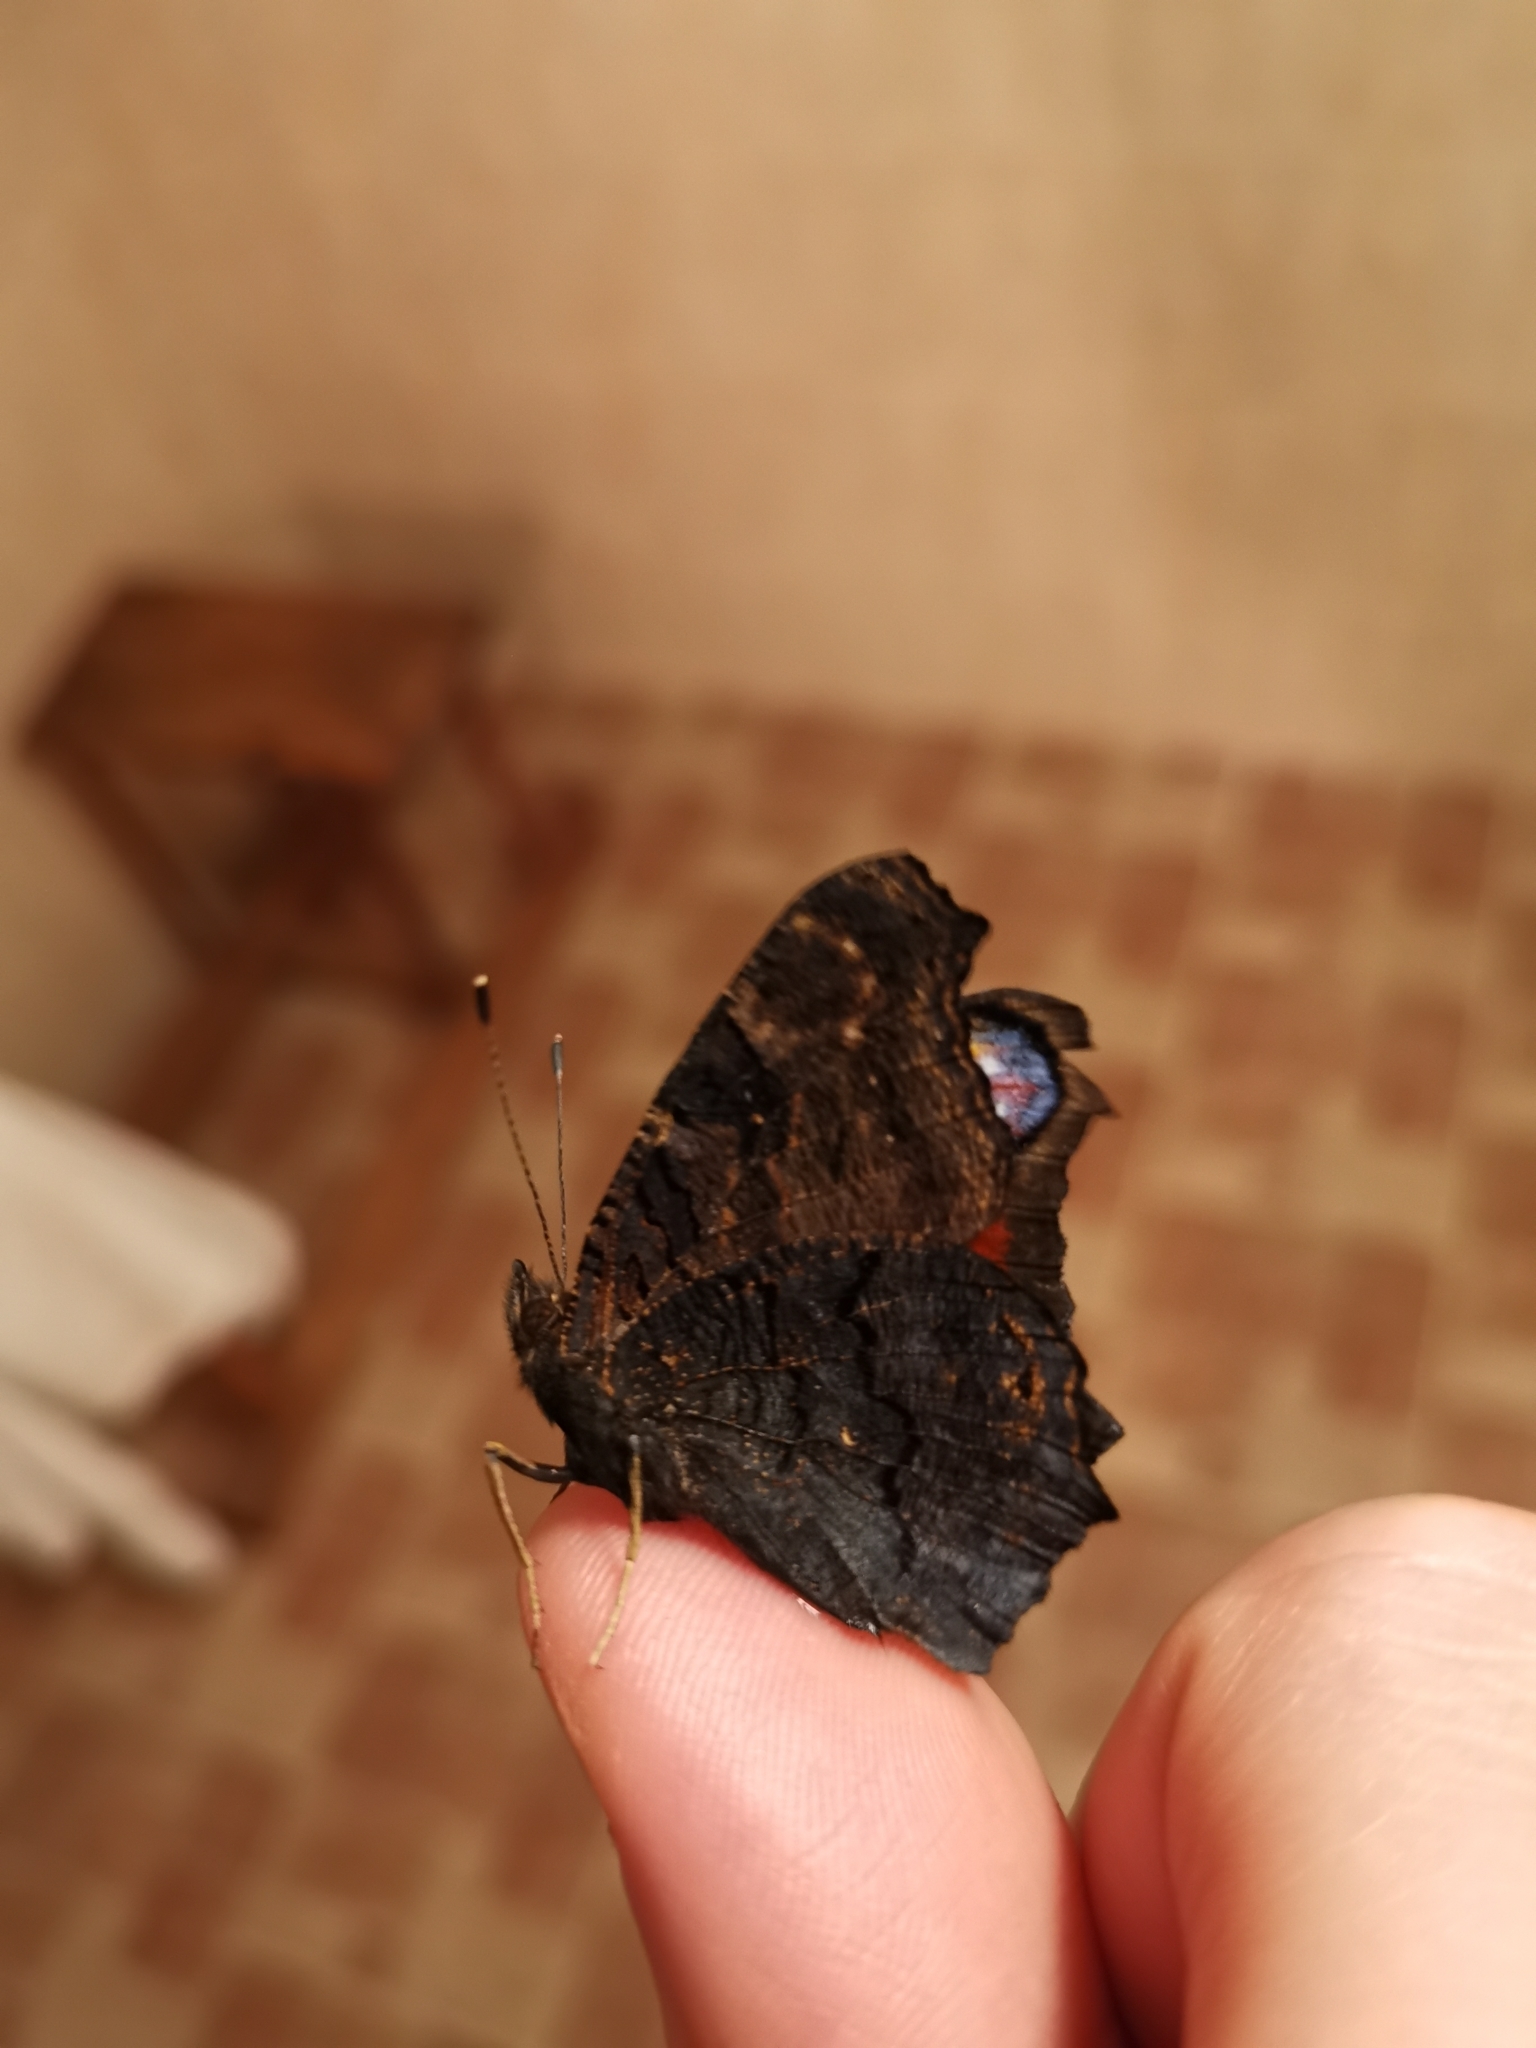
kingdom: Animalia
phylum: Arthropoda
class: Insecta
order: Lepidoptera
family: Nymphalidae
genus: Aglais
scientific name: Aglais io
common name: Peacock
